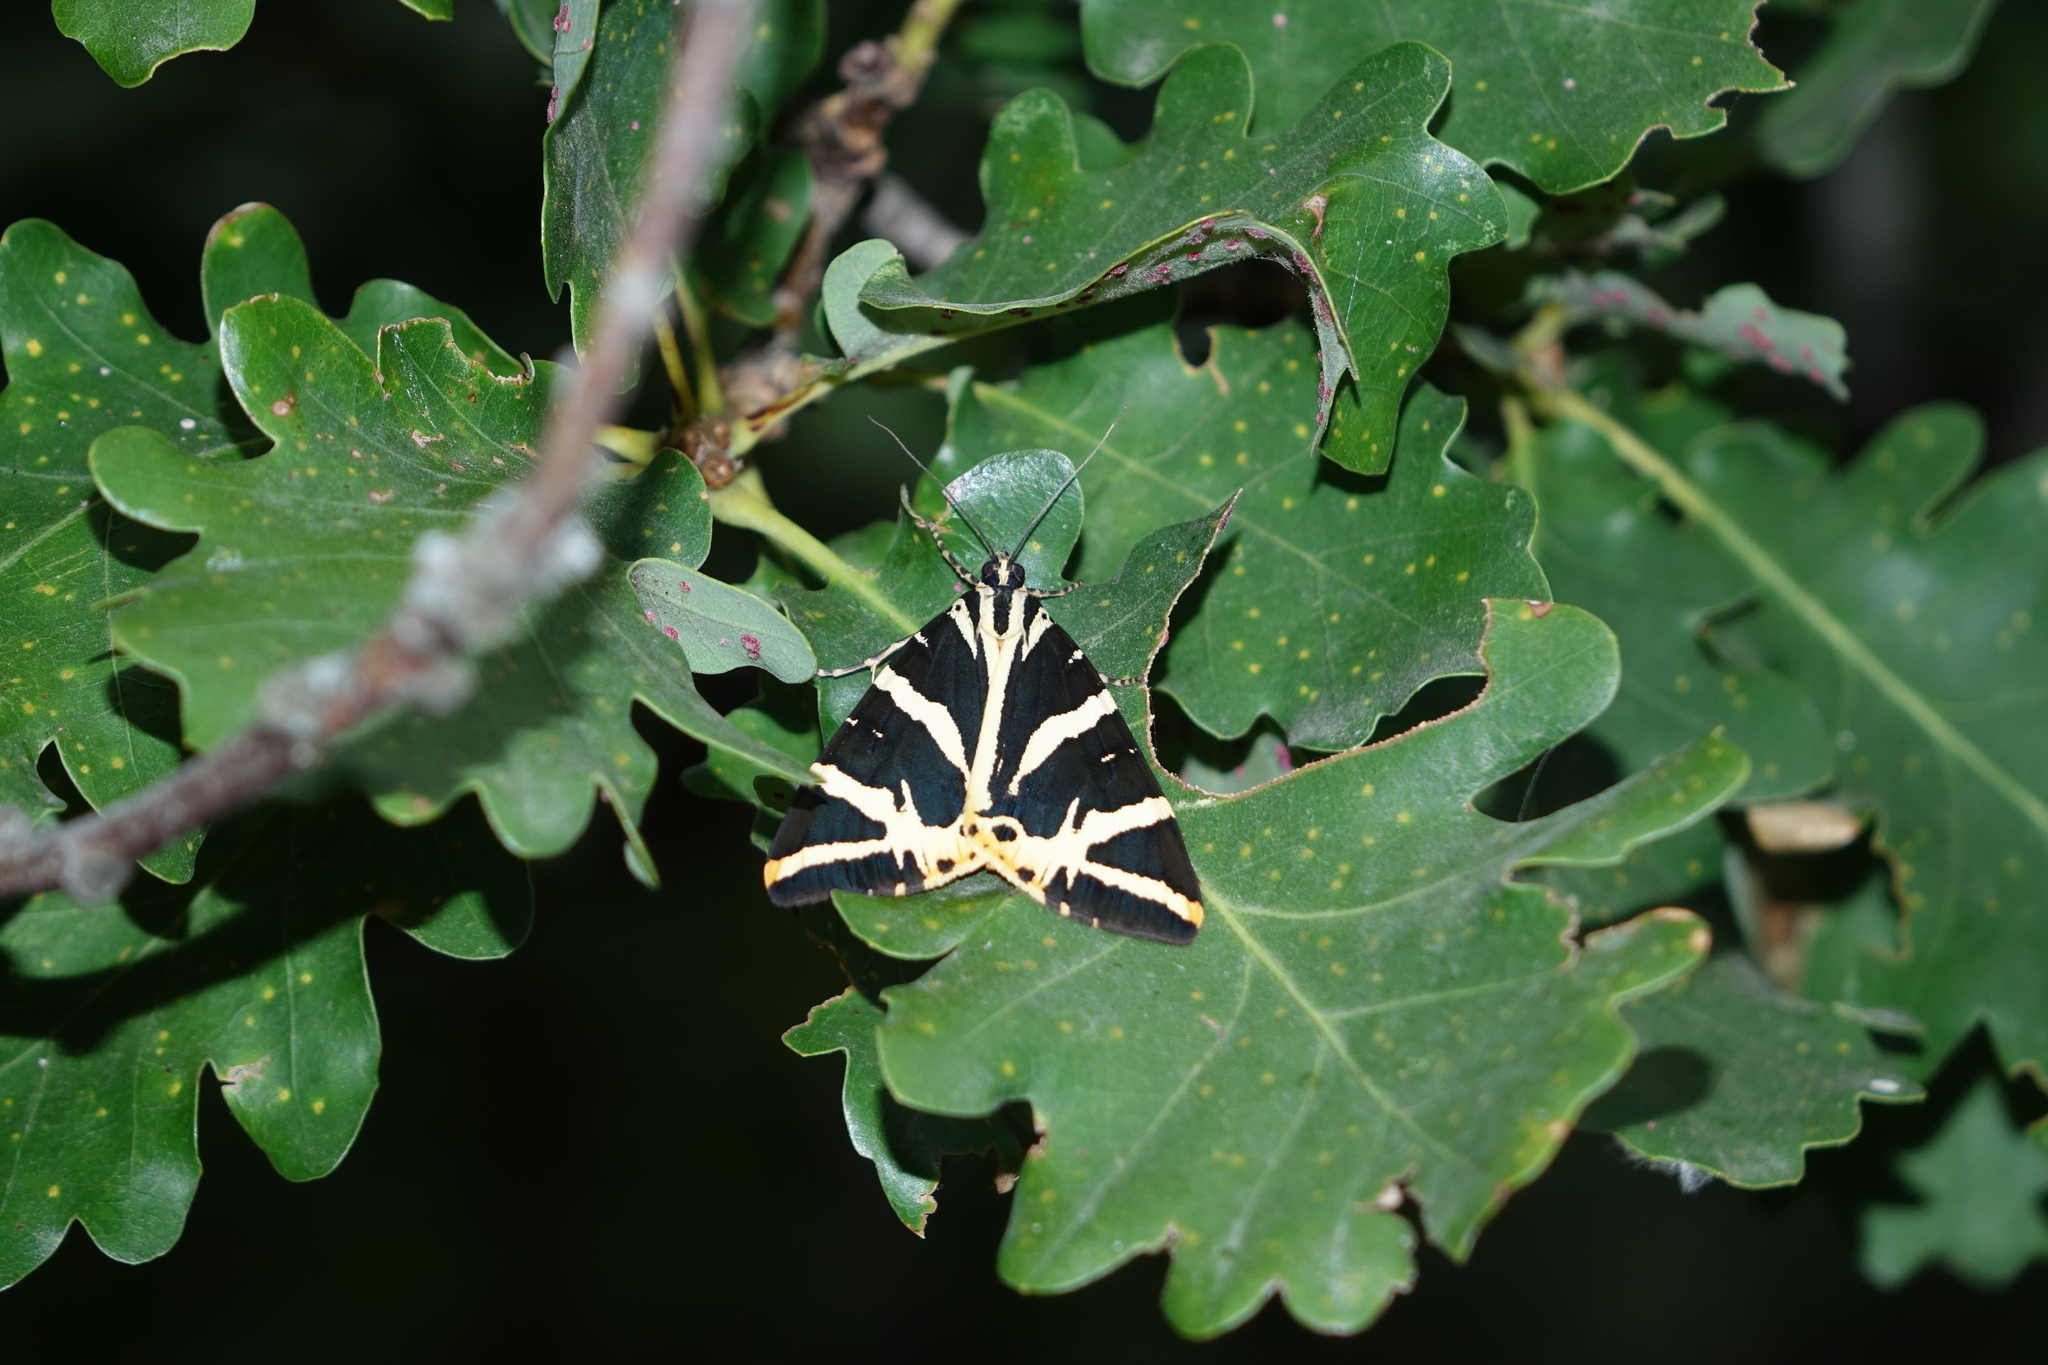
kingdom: Animalia
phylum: Arthropoda
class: Insecta
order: Lepidoptera
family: Erebidae
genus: Euplagia
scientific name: Euplagia quadripunctaria
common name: Jersey tiger
